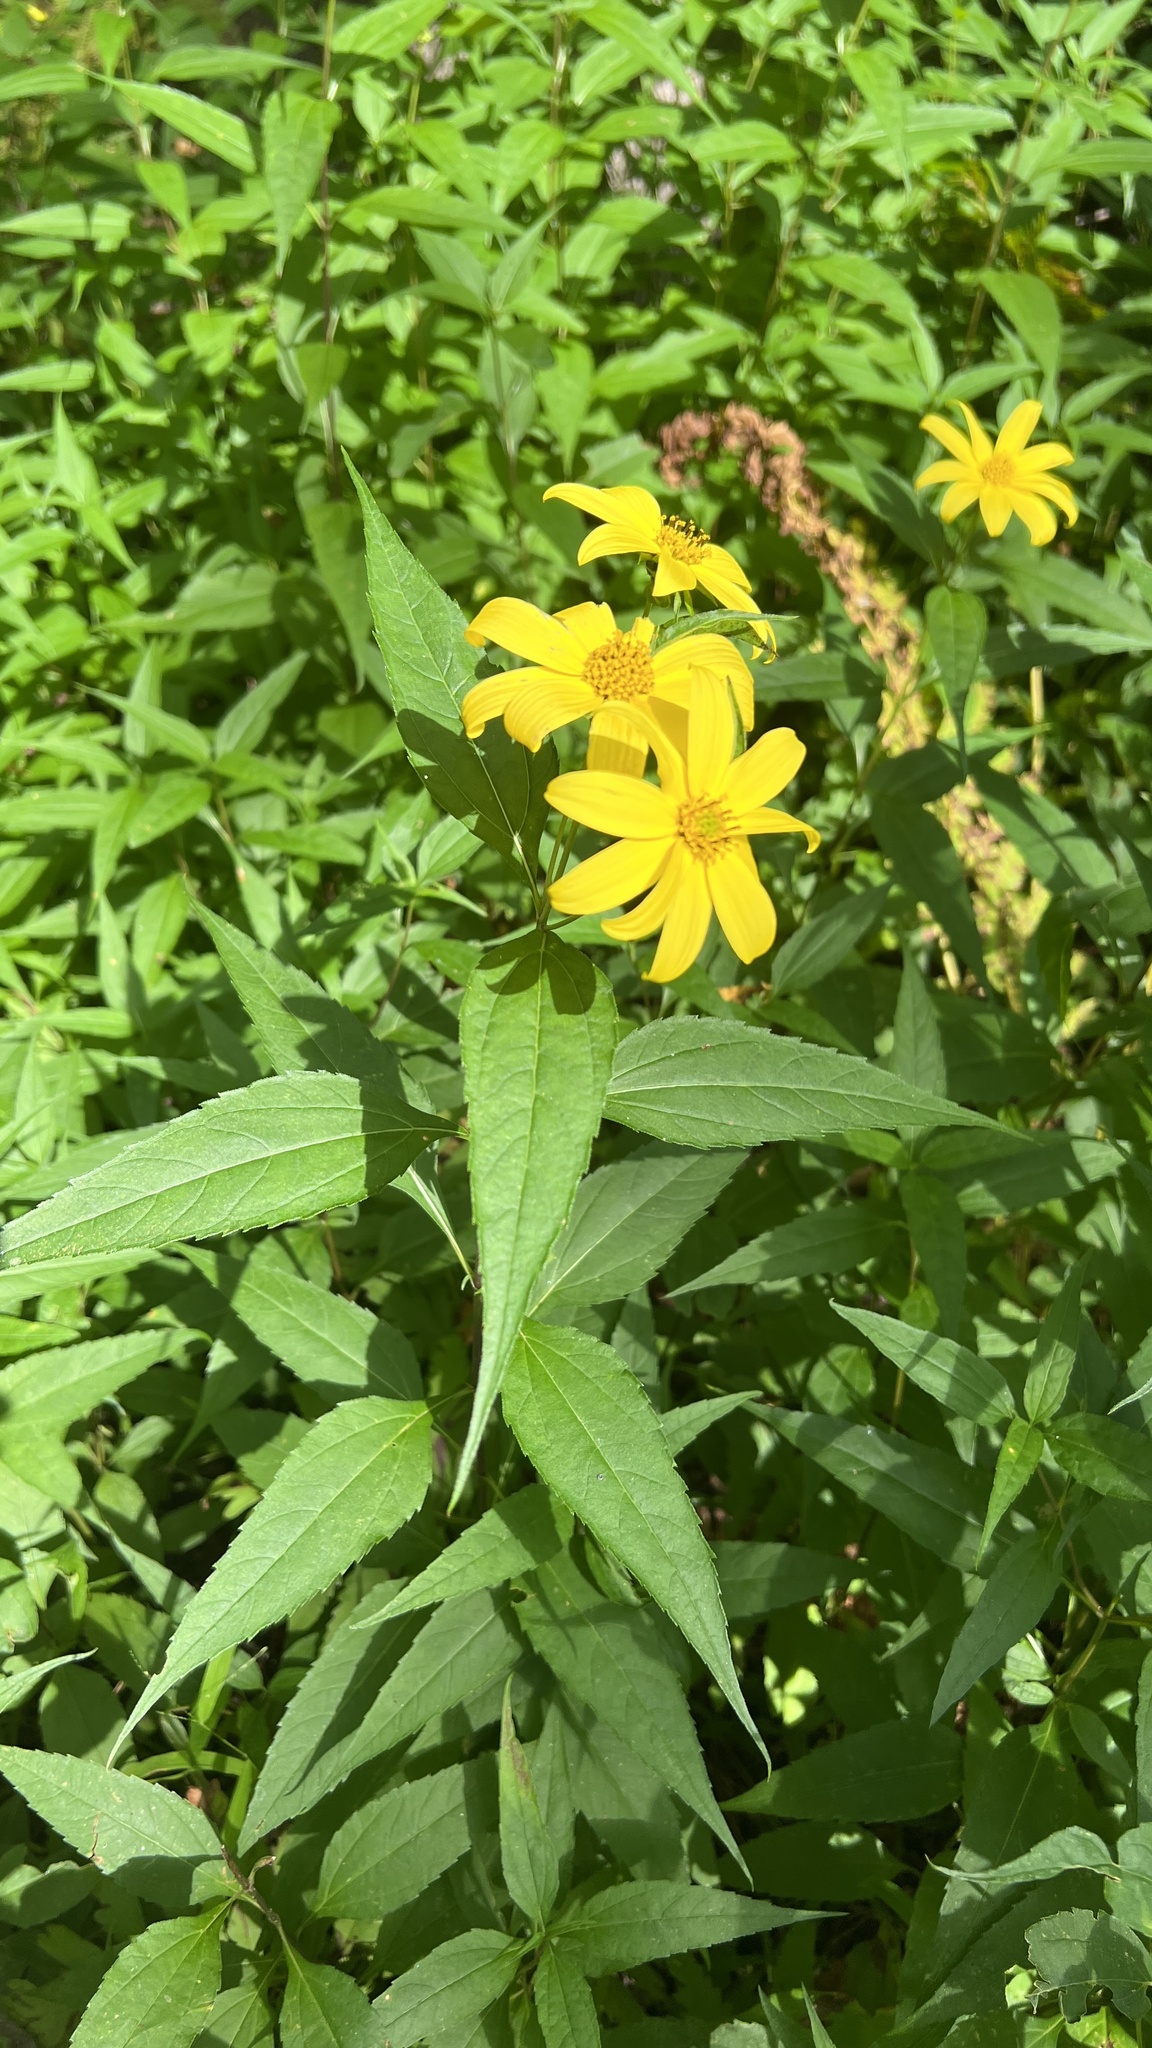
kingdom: Plantae
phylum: Tracheophyta
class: Magnoliopsida
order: Asterales
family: Asteraceae
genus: Helianthus
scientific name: Helianthus decapetalus
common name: Thin-leaved sunflower
